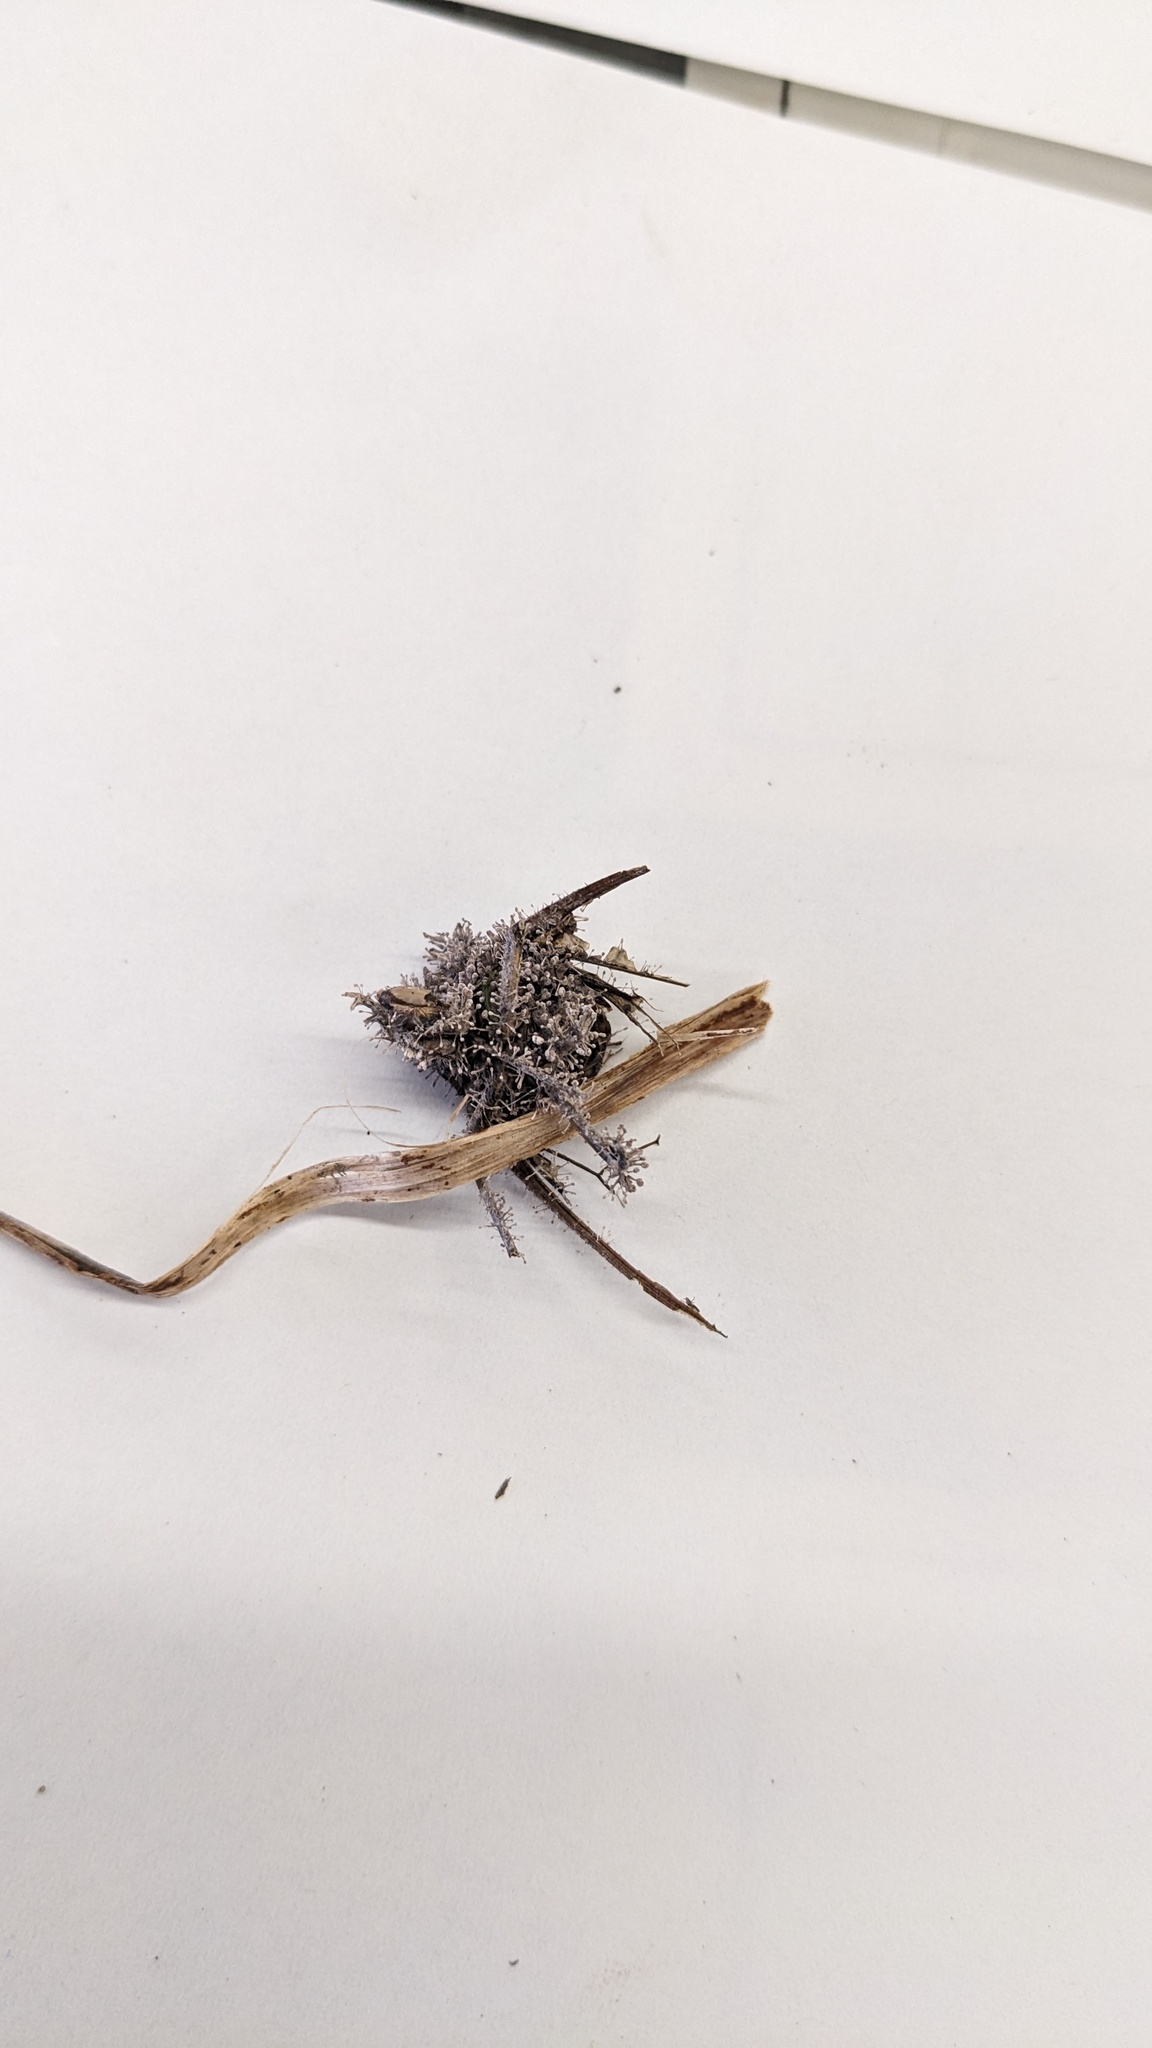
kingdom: Fungi
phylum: Ascomycota
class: Sordariomycetes
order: Hypocreales
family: Ophiocordycipitaceae
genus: Purpureocillium
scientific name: Purpureocillium takamizusanense
